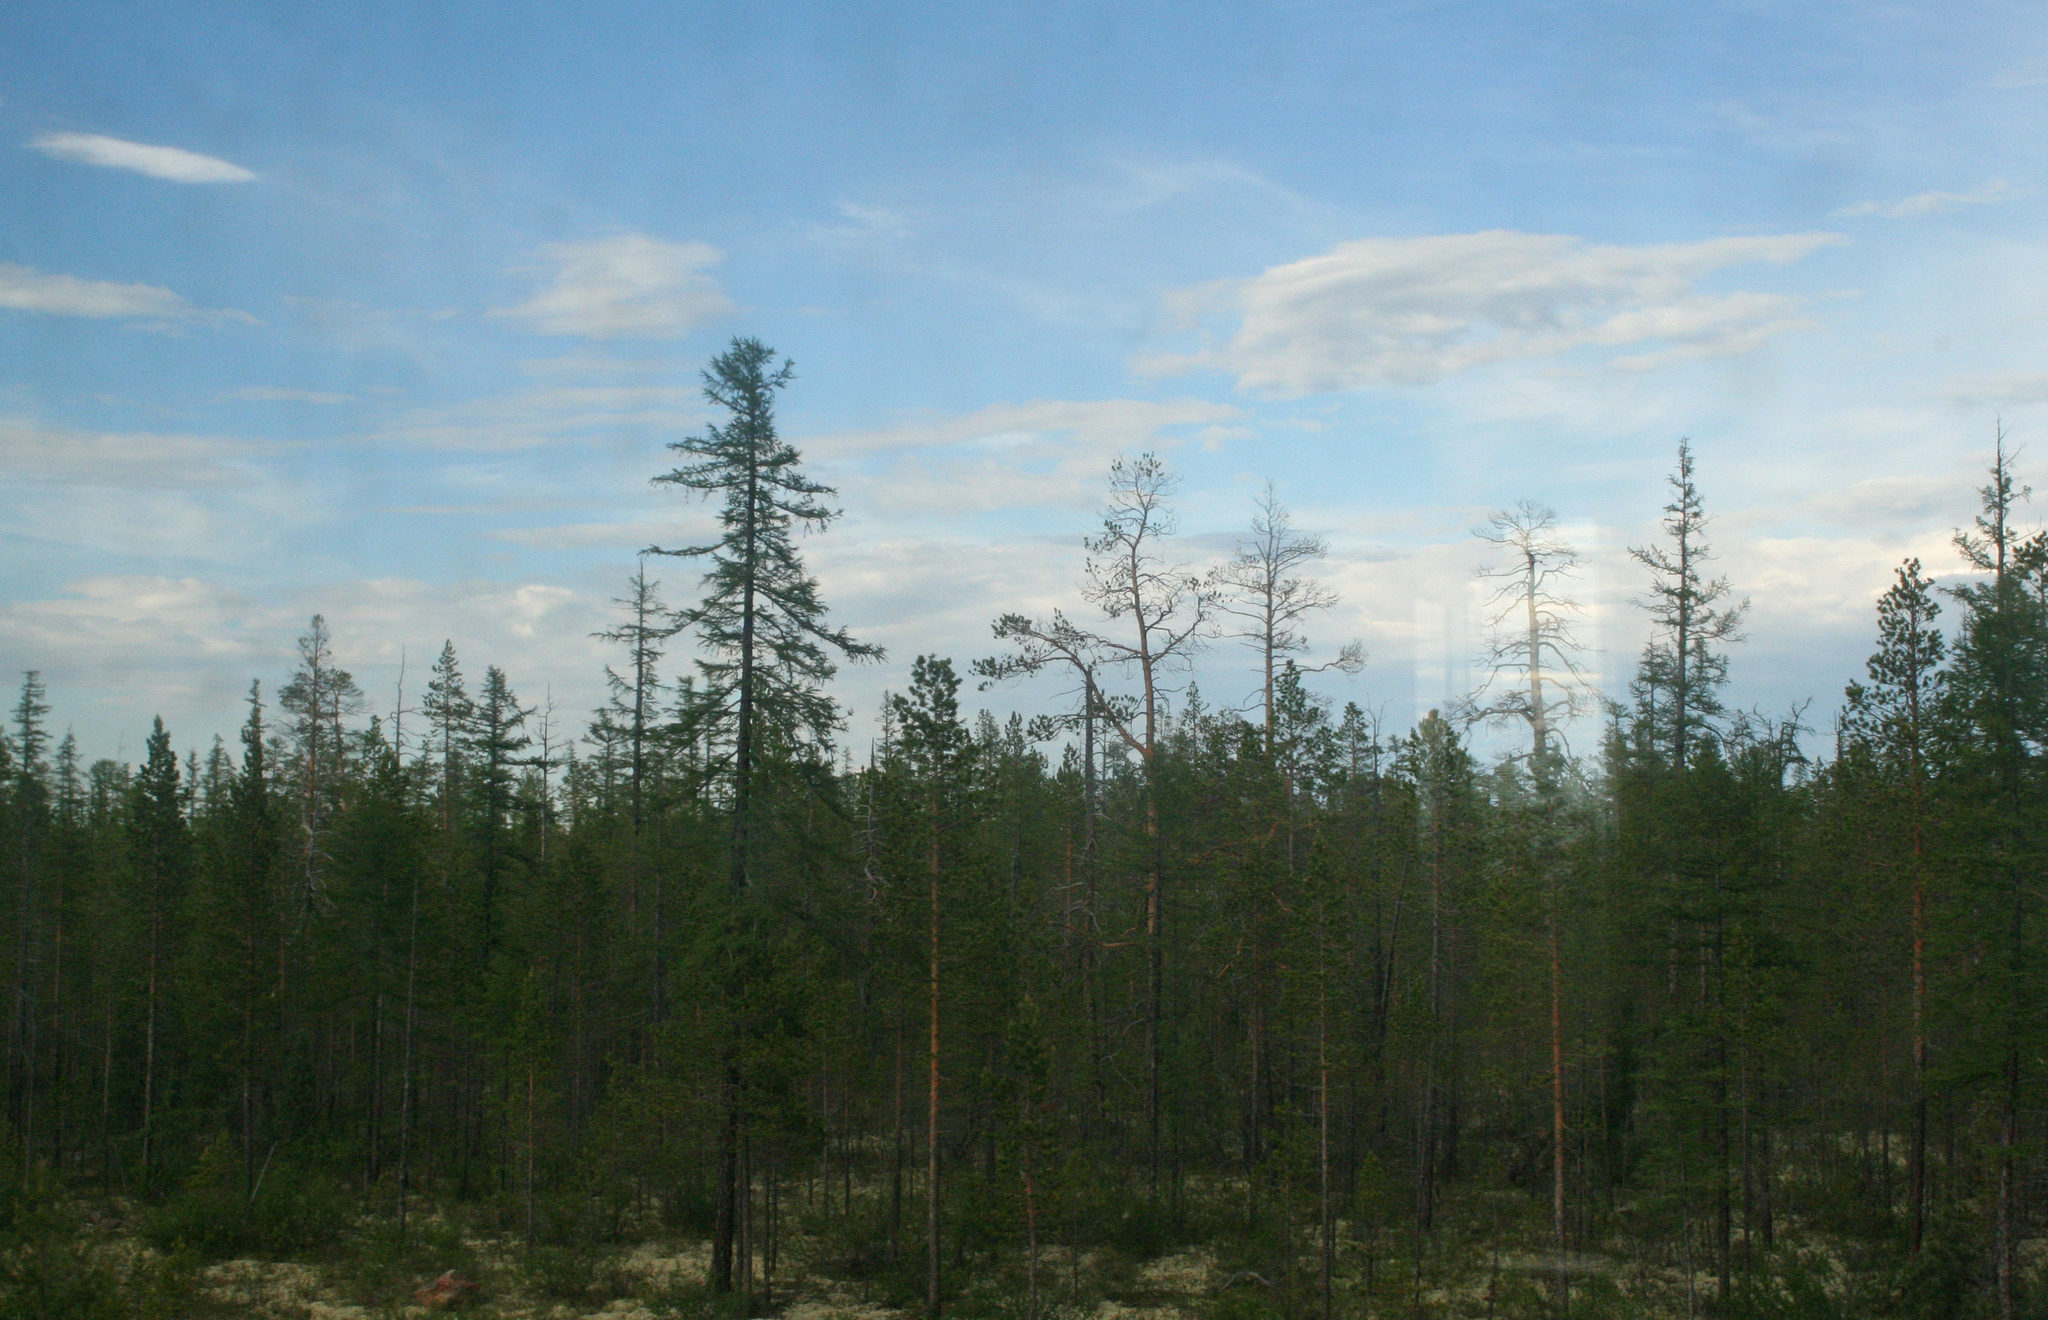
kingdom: Plantae
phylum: Tracheophyta
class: Pinopsida
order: Pinales
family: Pinaceae
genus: Larix
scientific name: Larix gmelinii
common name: Dahurian larch
